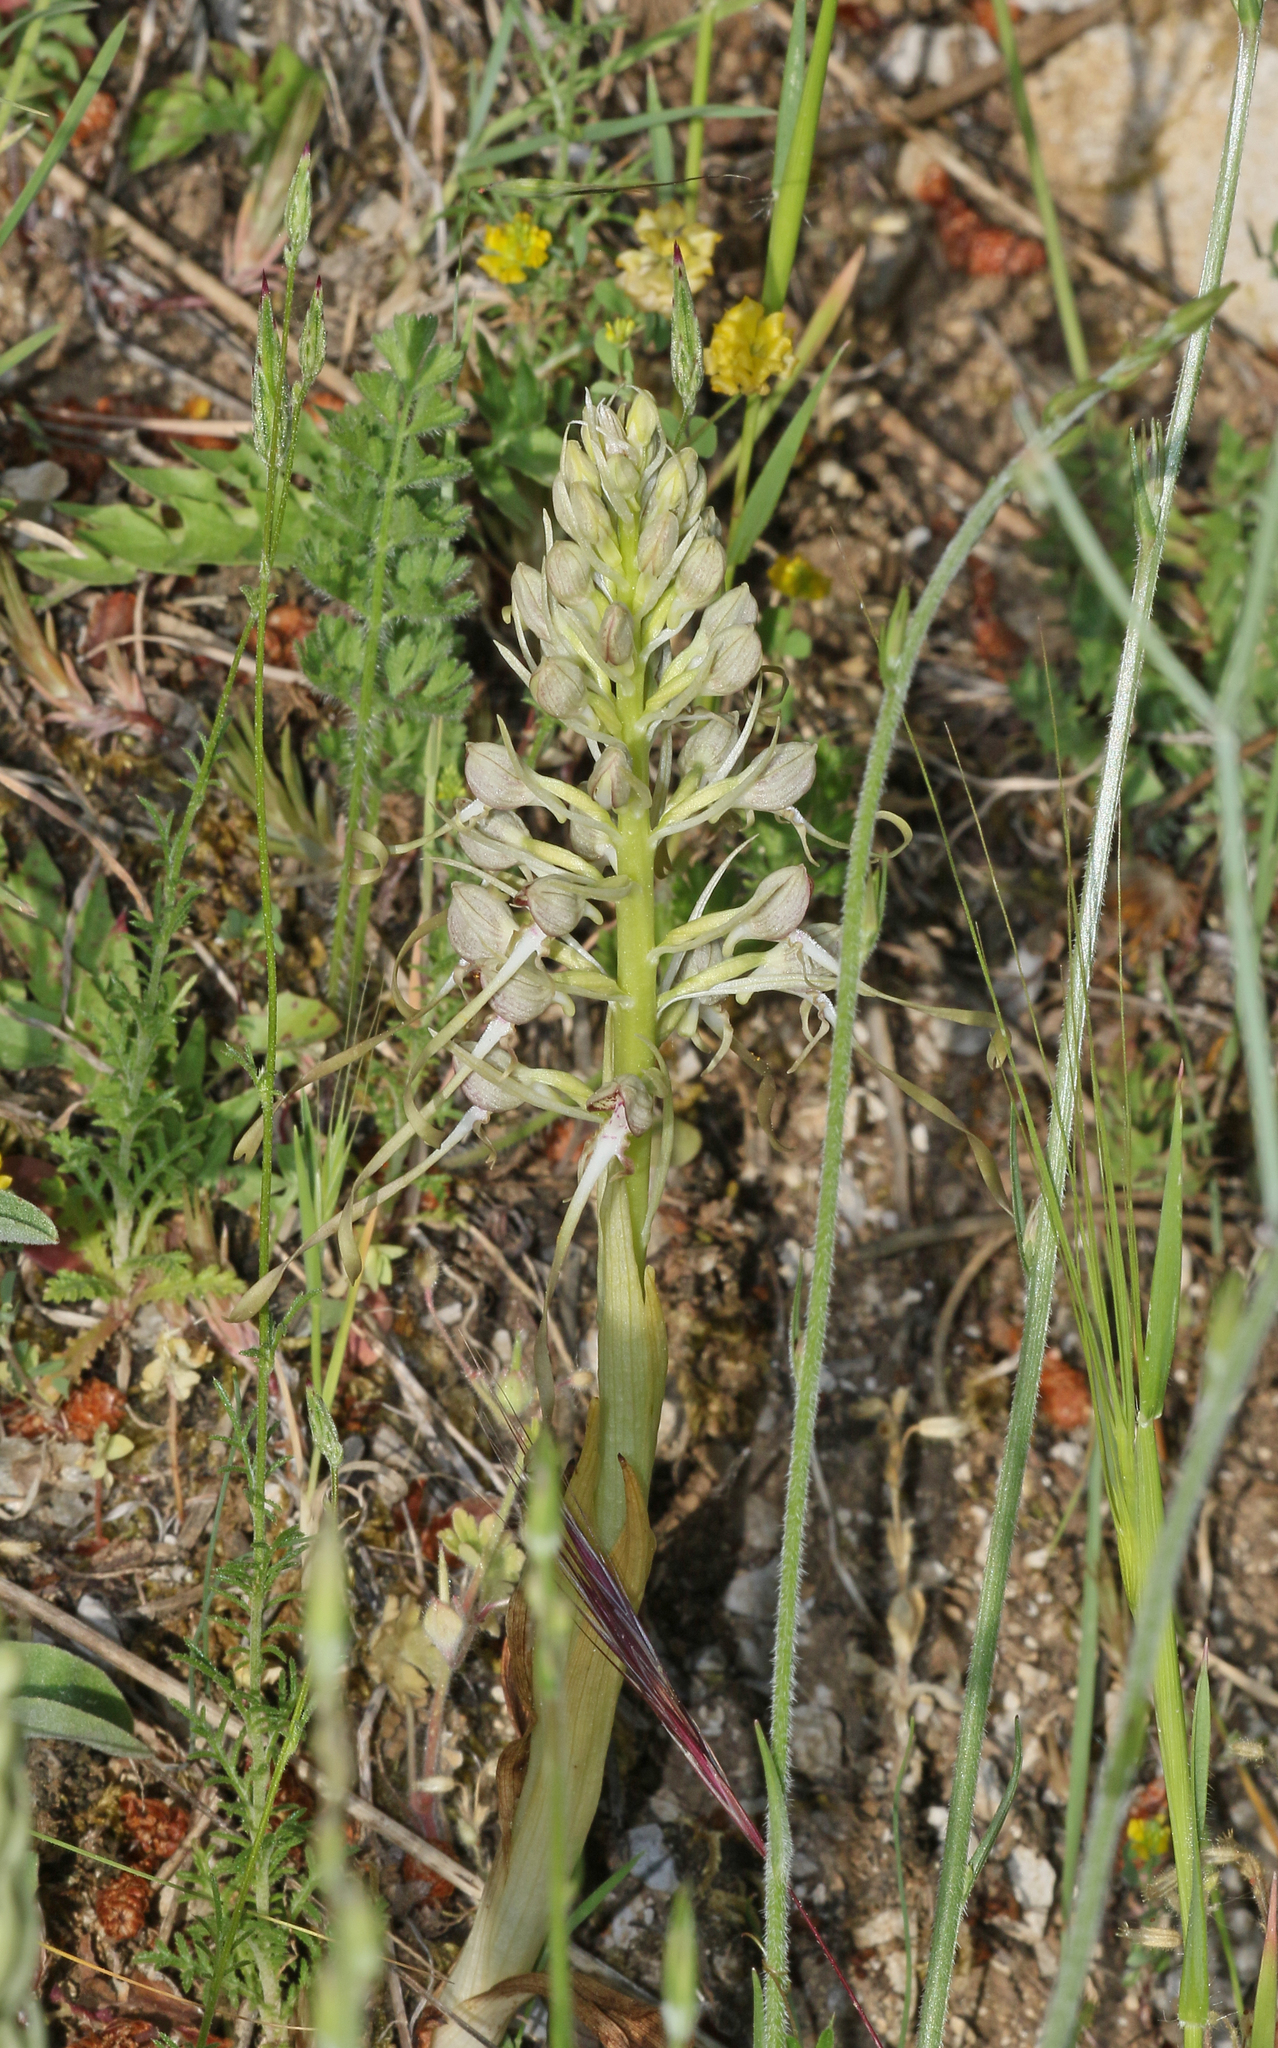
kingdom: Plantae
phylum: Tracheophyta
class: Liliopsida
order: Asparagales
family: Orchidaceae
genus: Himantoglossum
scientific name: Himantoglossum hircinum
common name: Lizard orchid
